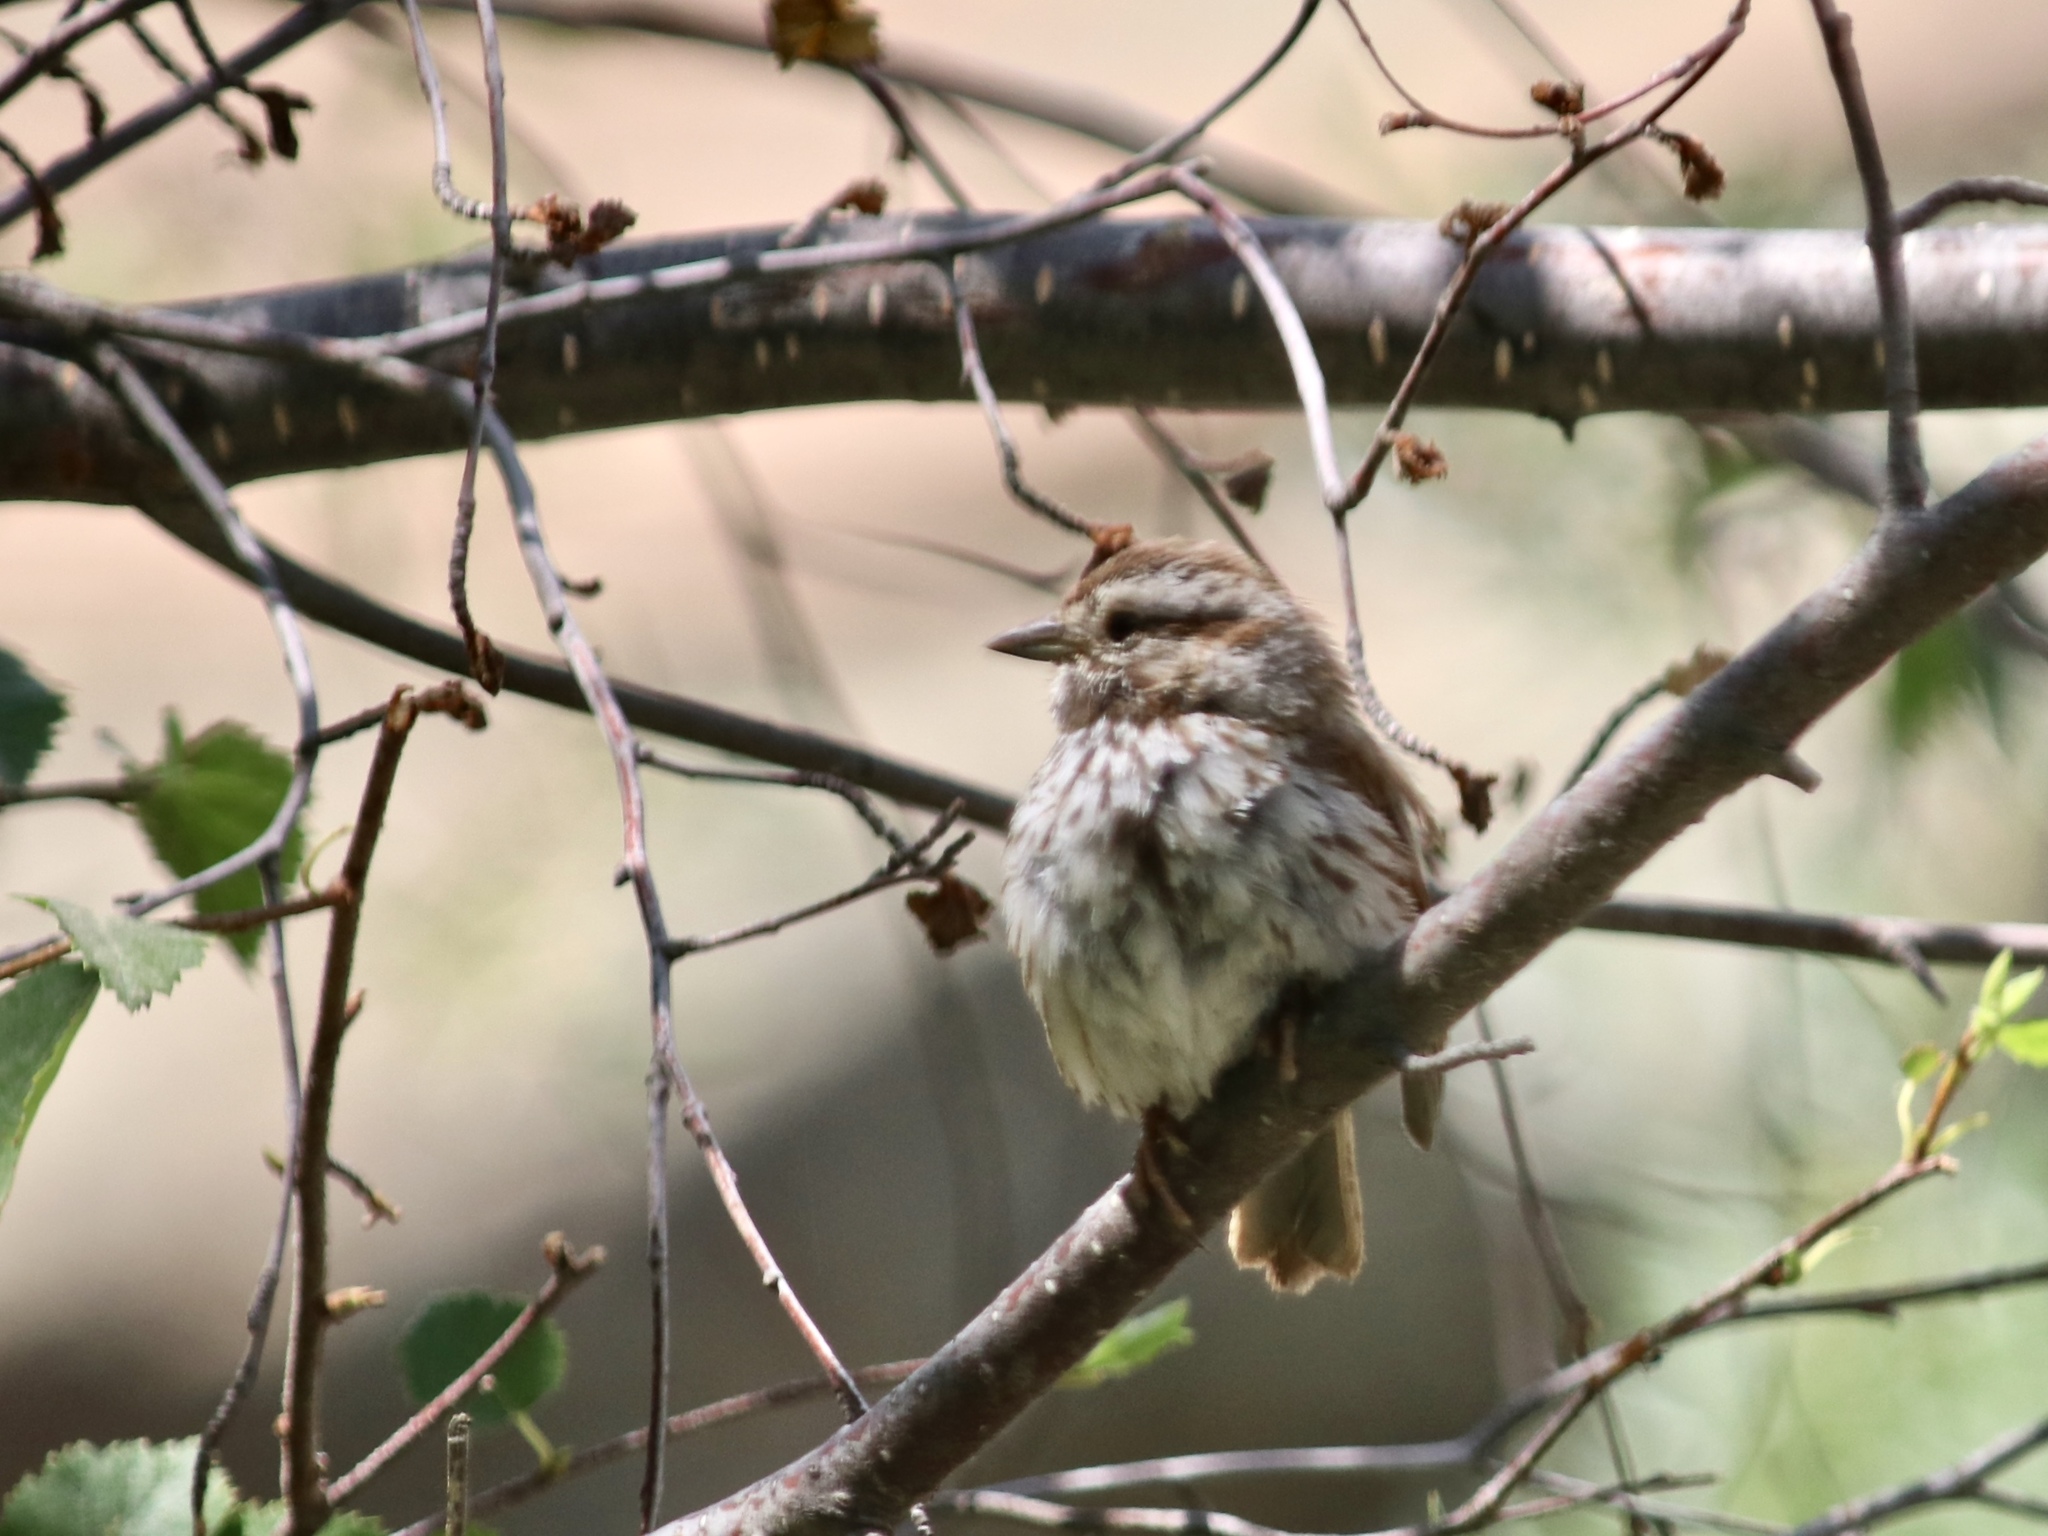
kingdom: Animalia
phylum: Chordata
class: Aves
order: Passeriformes
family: Passerellidae
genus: Melospiza
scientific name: Melospiza melodia
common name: Song sparrow
